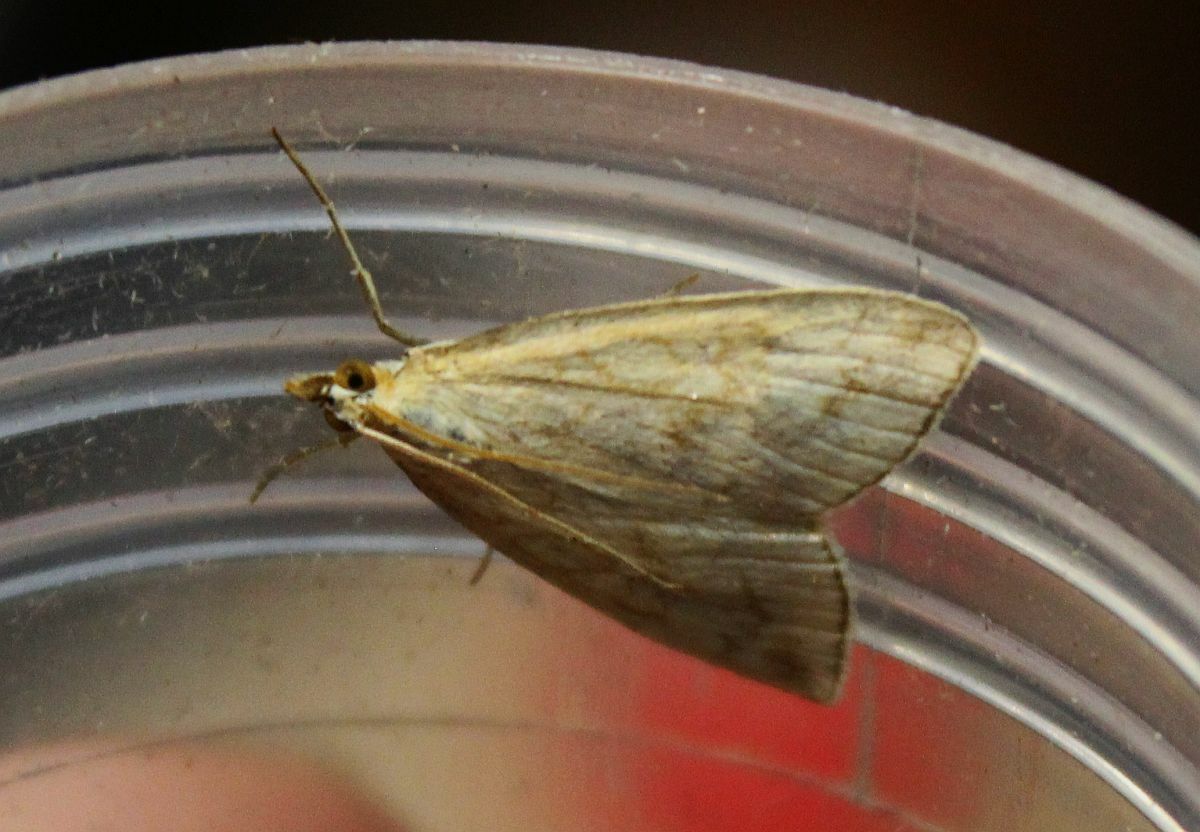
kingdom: Animalia
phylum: Arthropoda
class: Insecta
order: Lepidoptera
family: Crambidae
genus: Udea
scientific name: Udea lutealis
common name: Pale straw pearl
